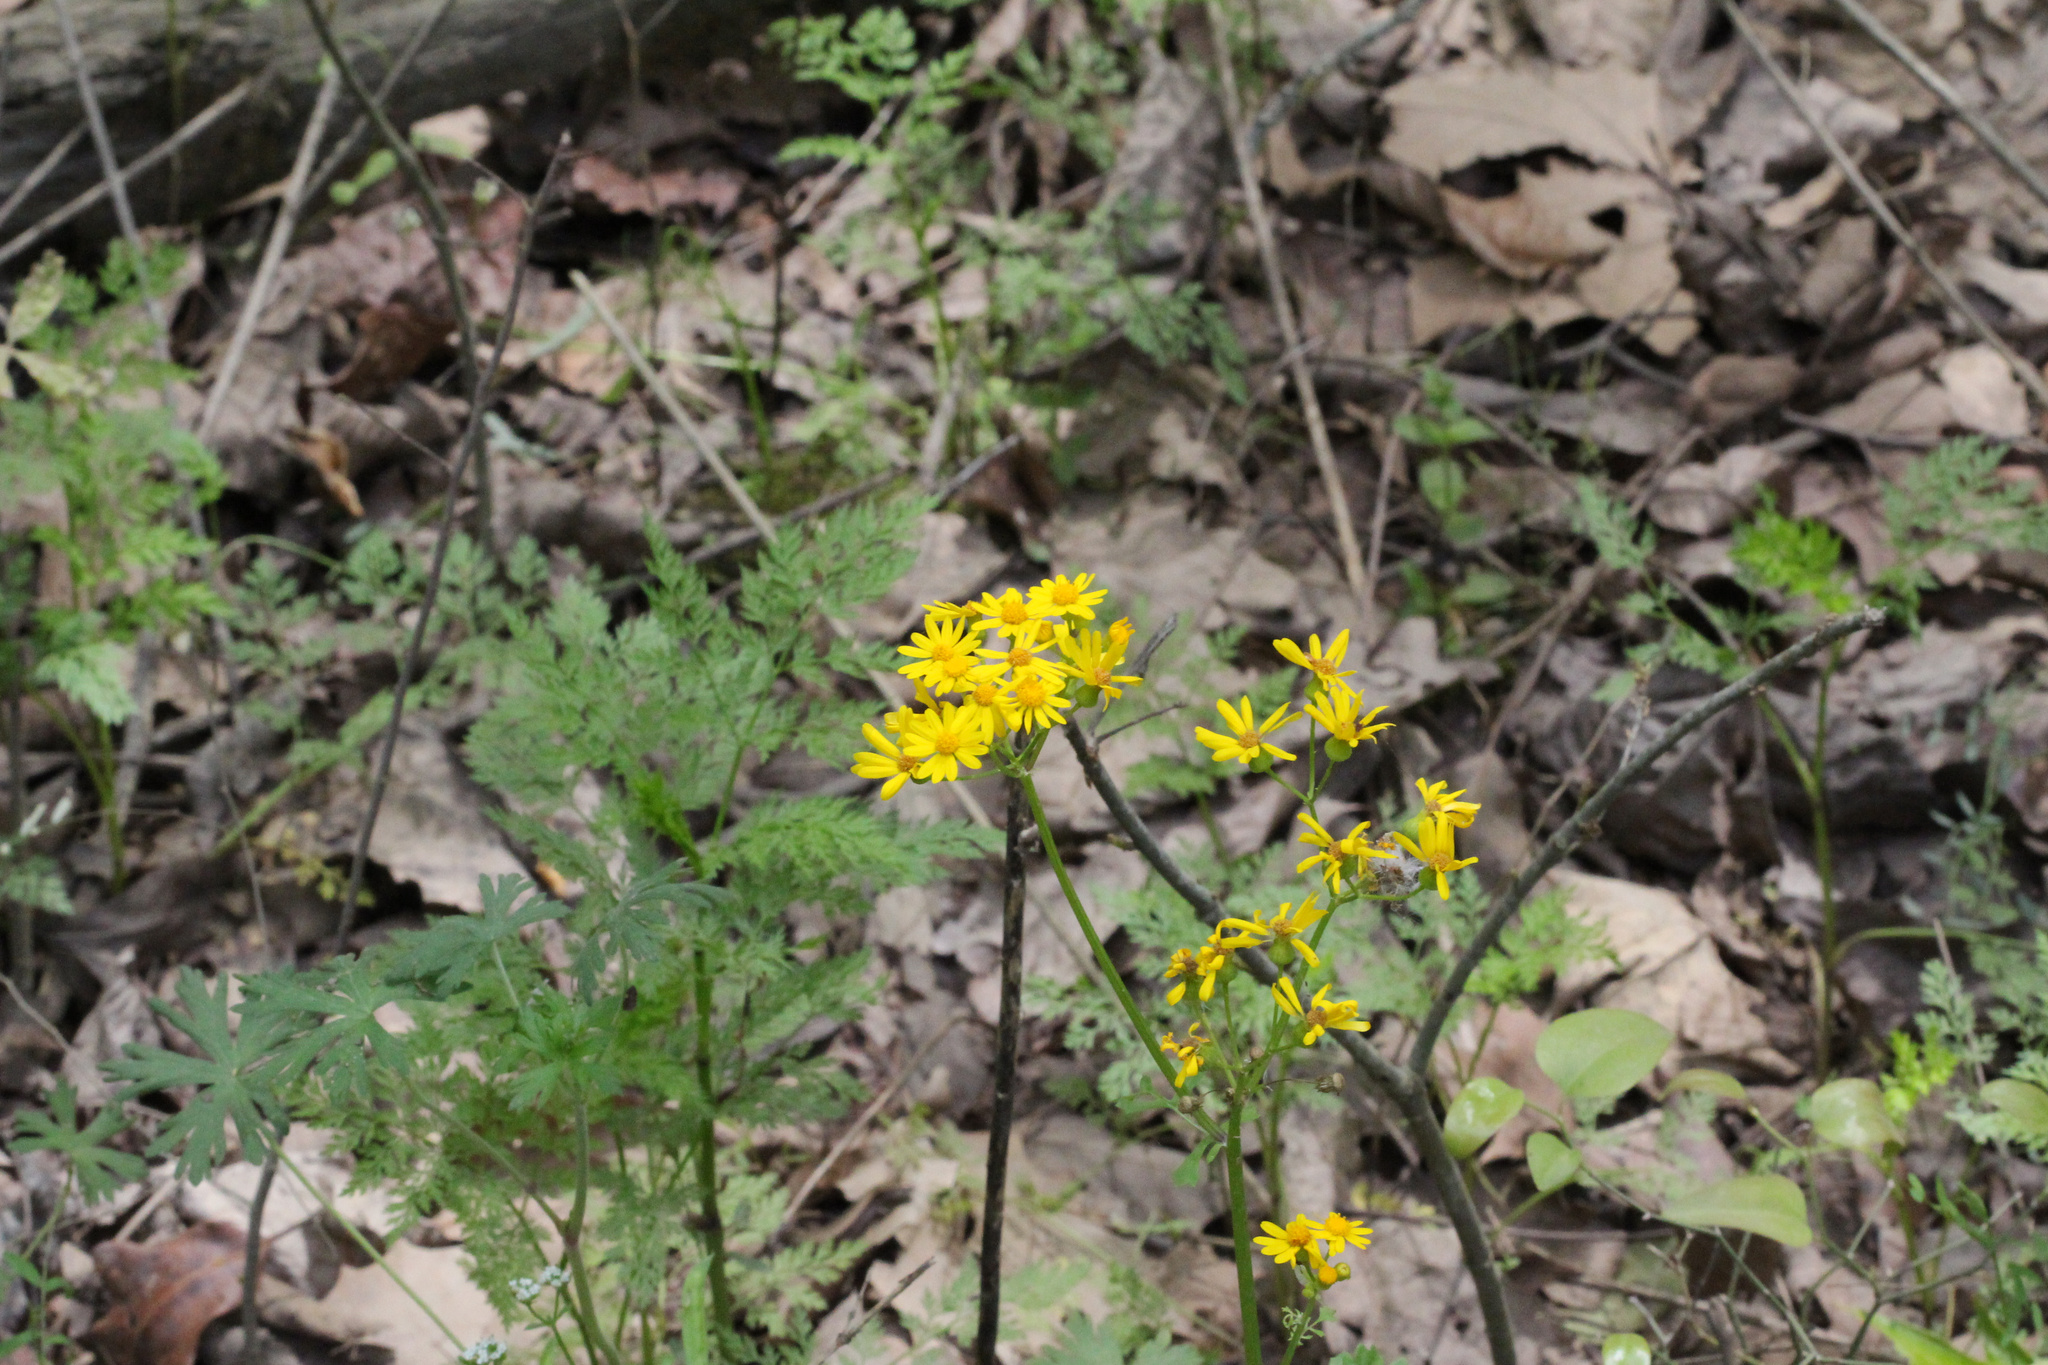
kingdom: Plantae
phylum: Tracheophyta
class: Magnoliopsida
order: Asterales
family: Asteraceae
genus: Packera
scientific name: Packera glabella
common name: Butterweed
